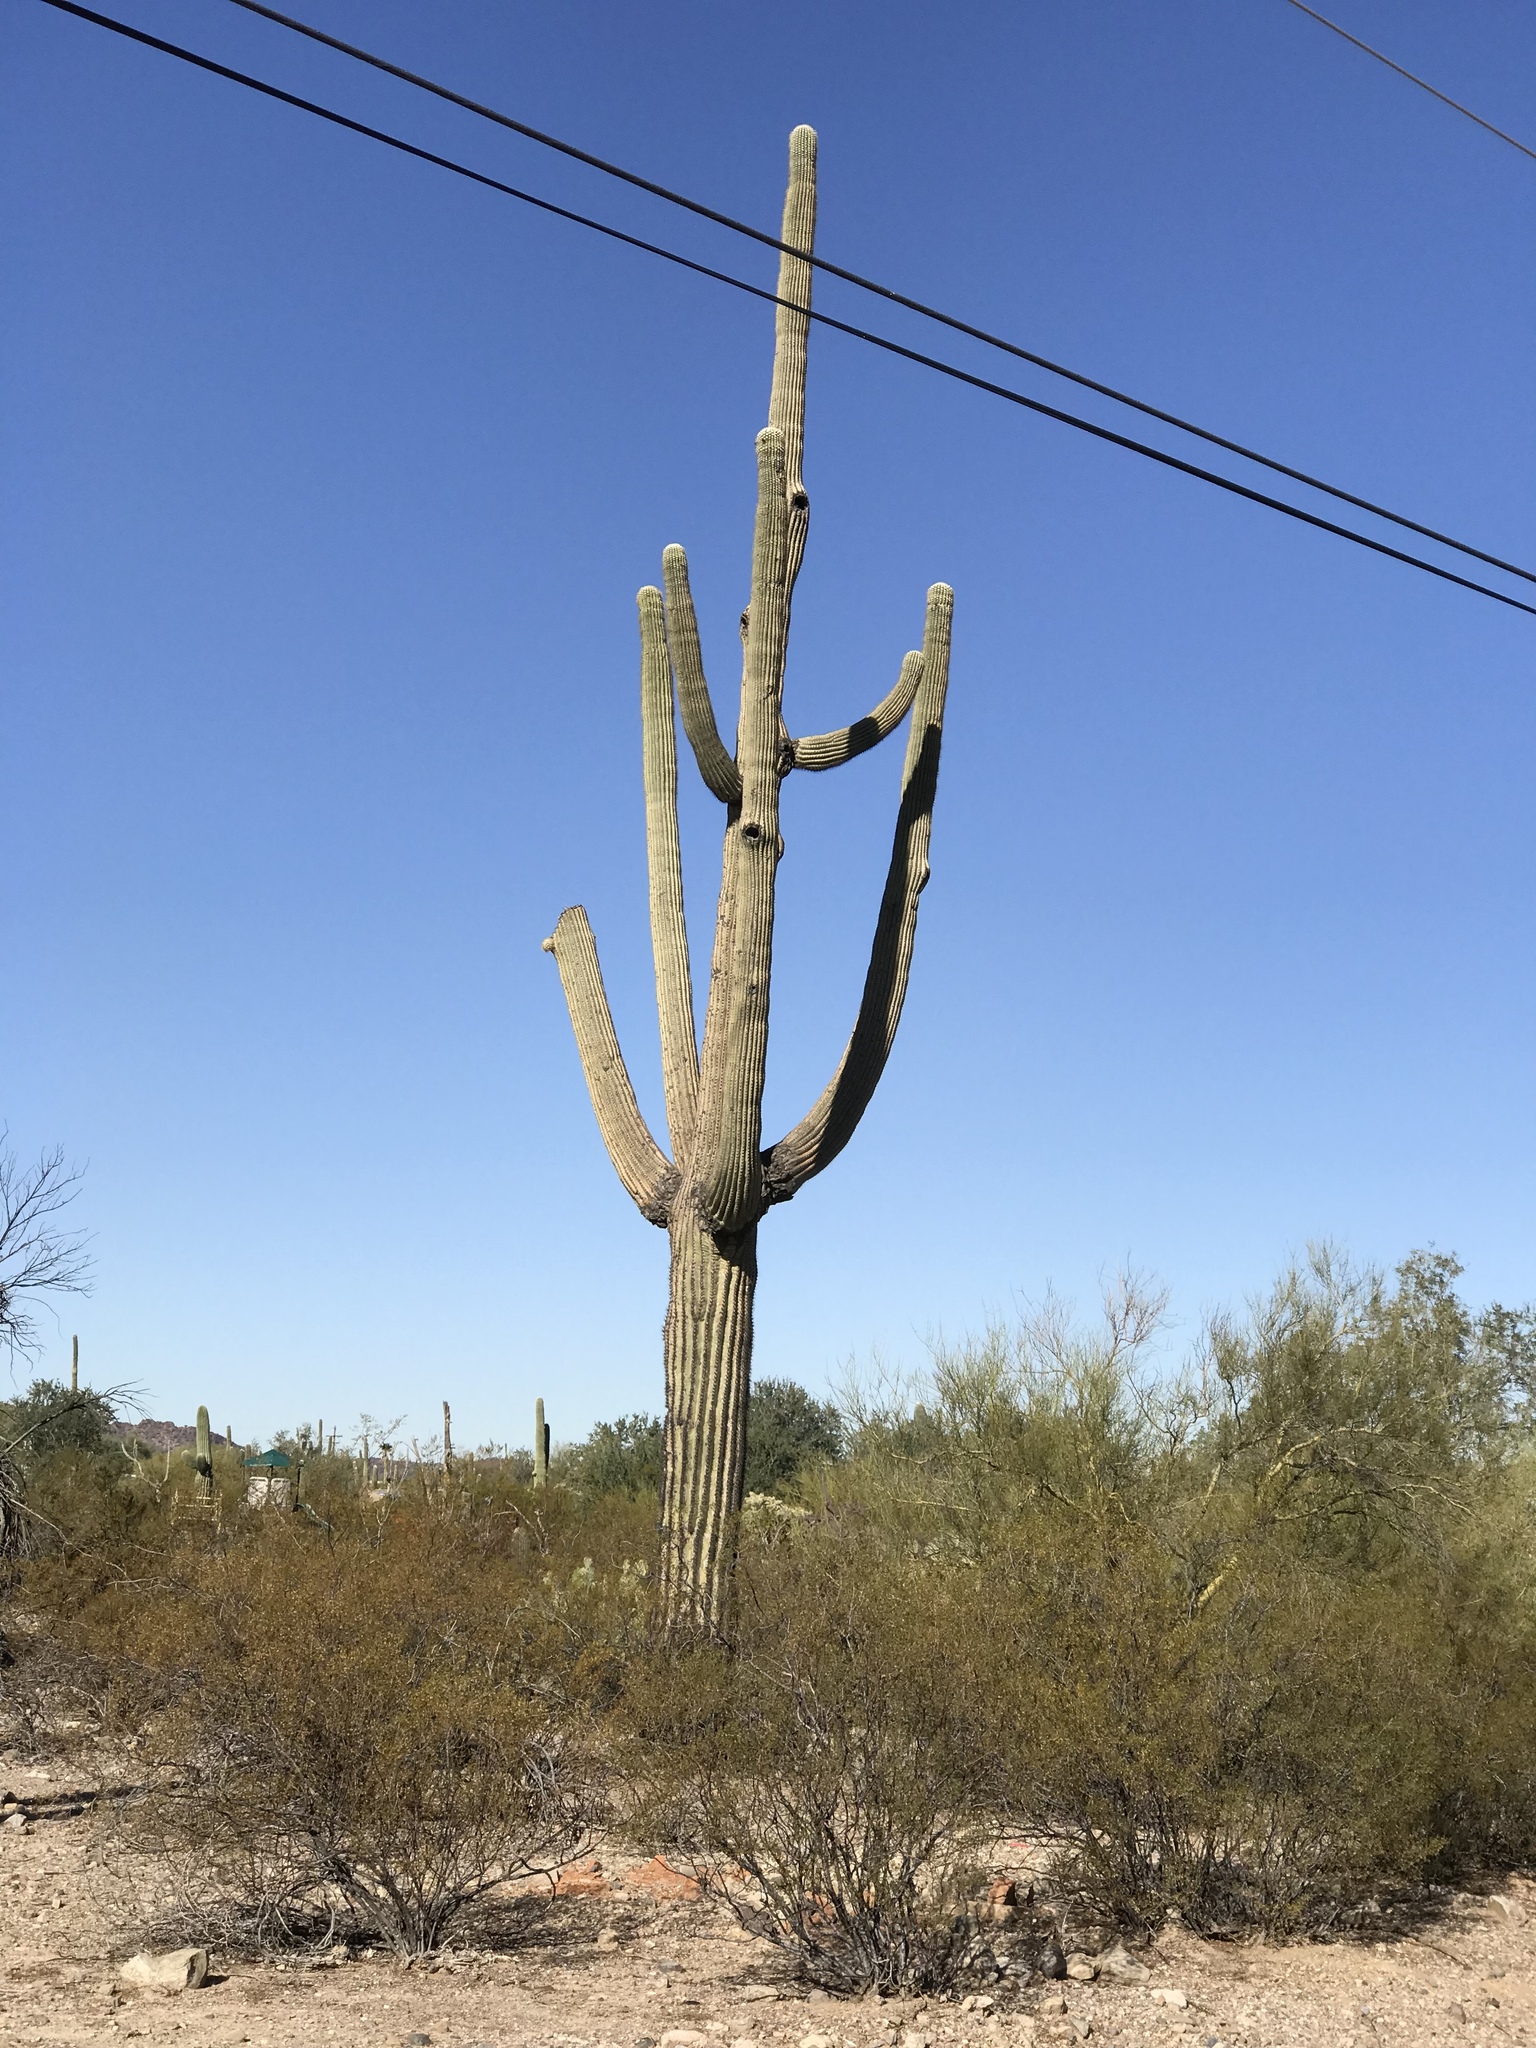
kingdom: Plantae
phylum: Tracheophyta
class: Magnoliopsida
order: Caryophyllales
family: Cactaceae
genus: Carnegiea
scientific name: Carnegiea gigantea
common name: Saguaro
